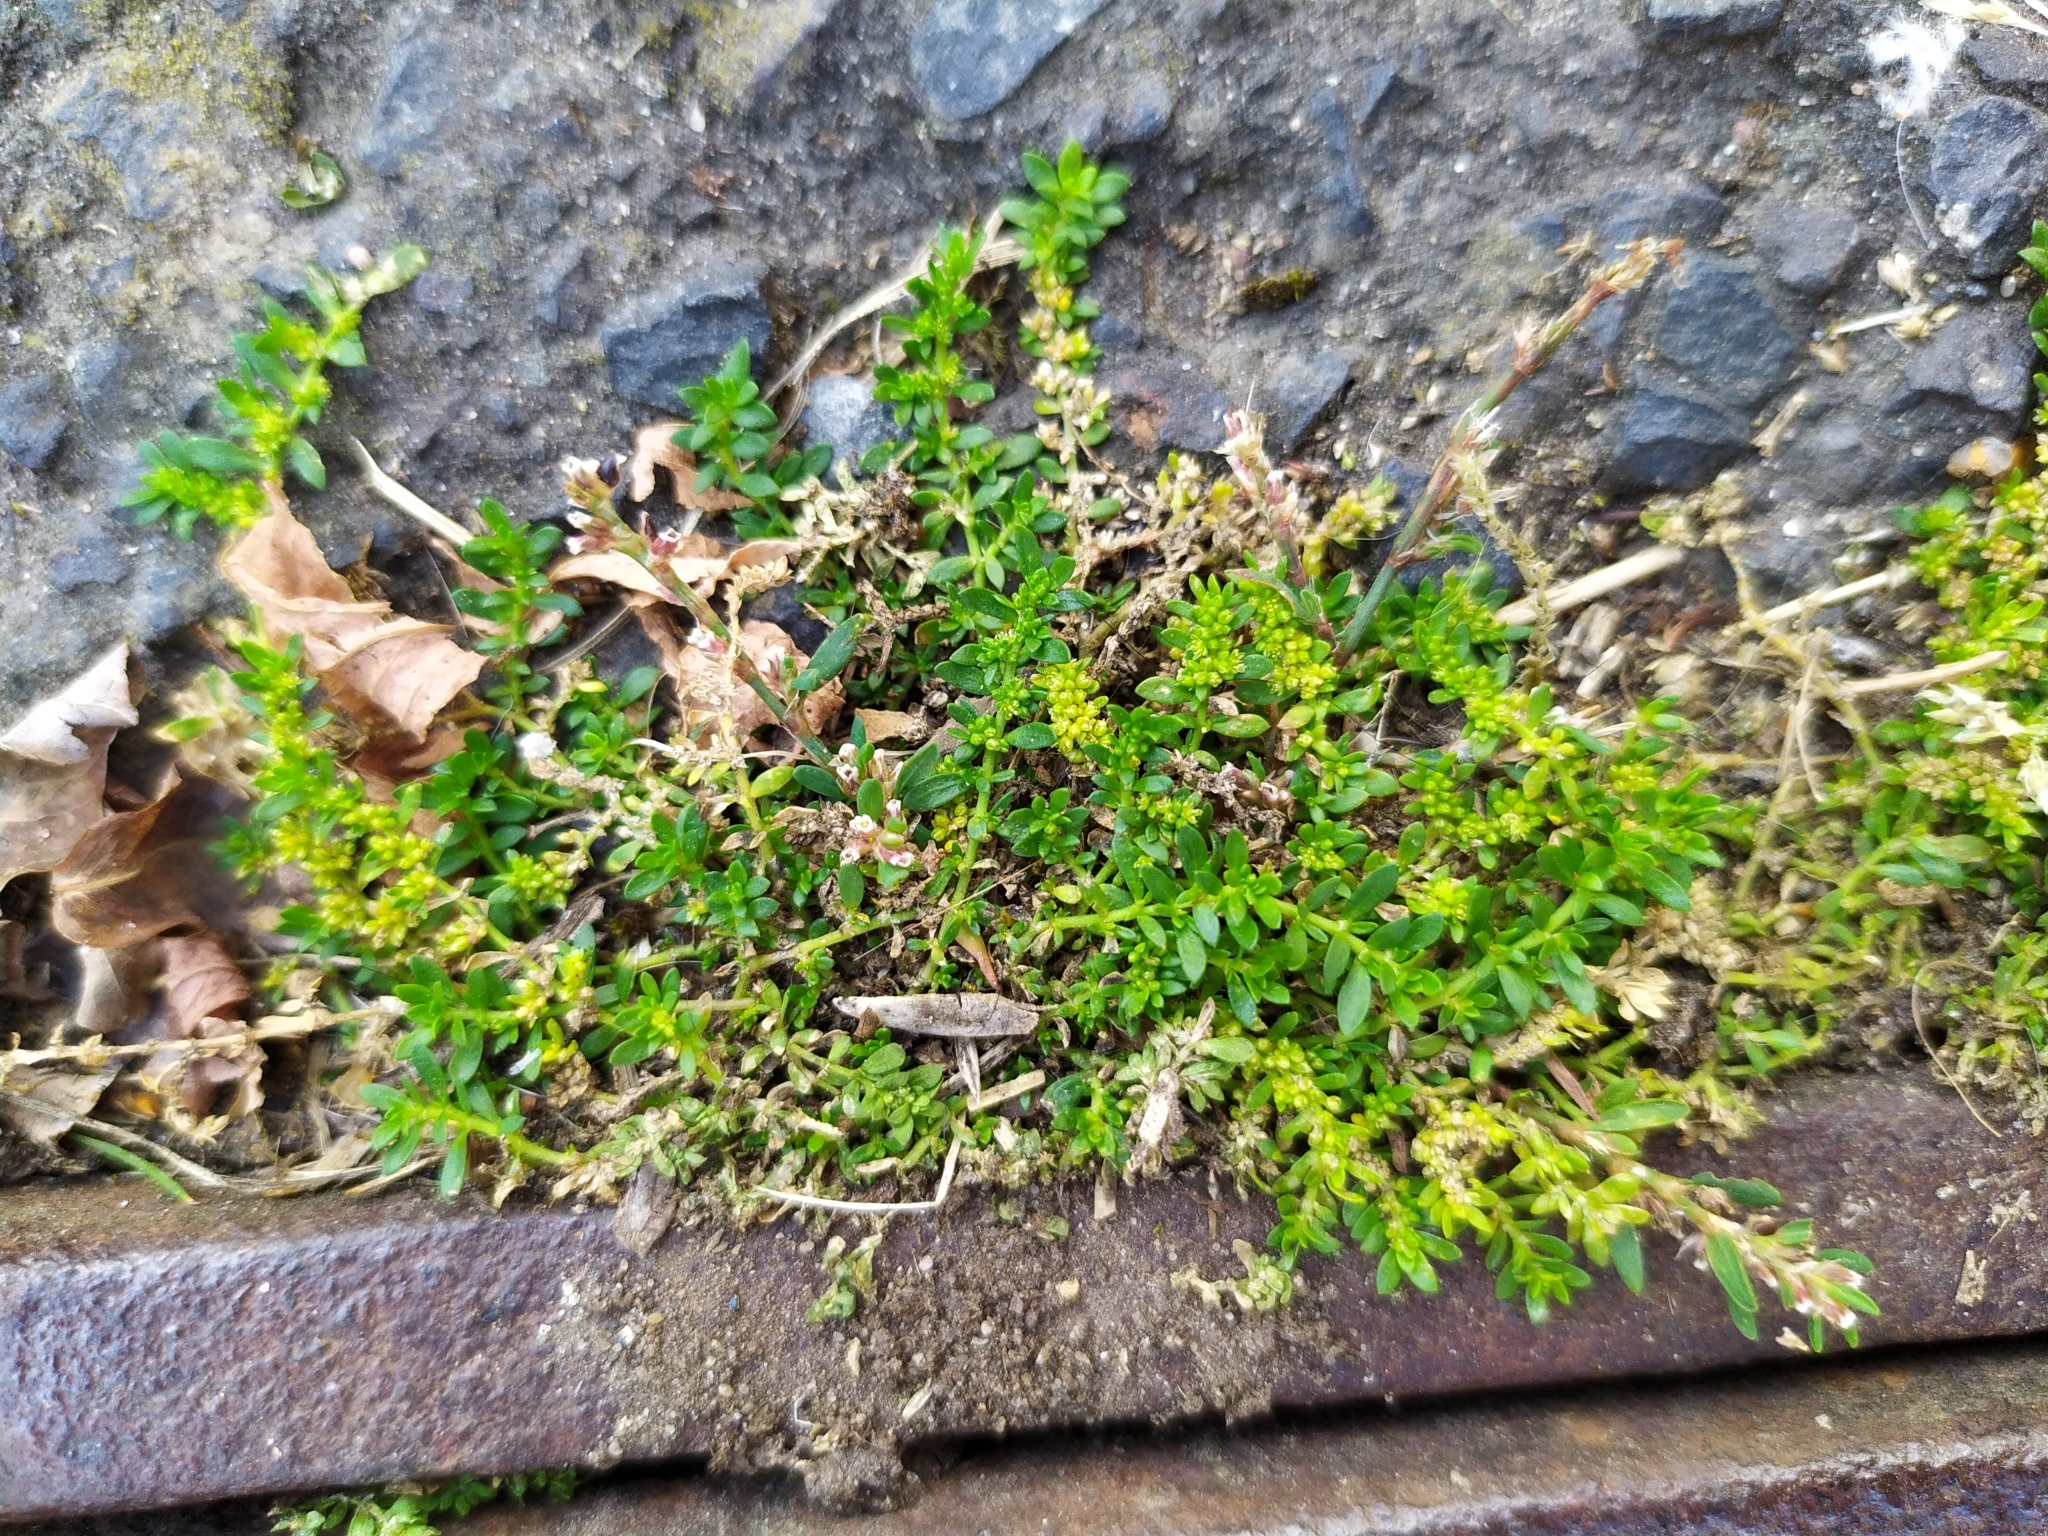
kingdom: Plantae
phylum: Tracheophyta
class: Magnoliopsida
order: Caryophyllales
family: Caryophyllaceae
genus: Herniaria
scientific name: Herniaria glabra
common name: Smooth rupturewort
